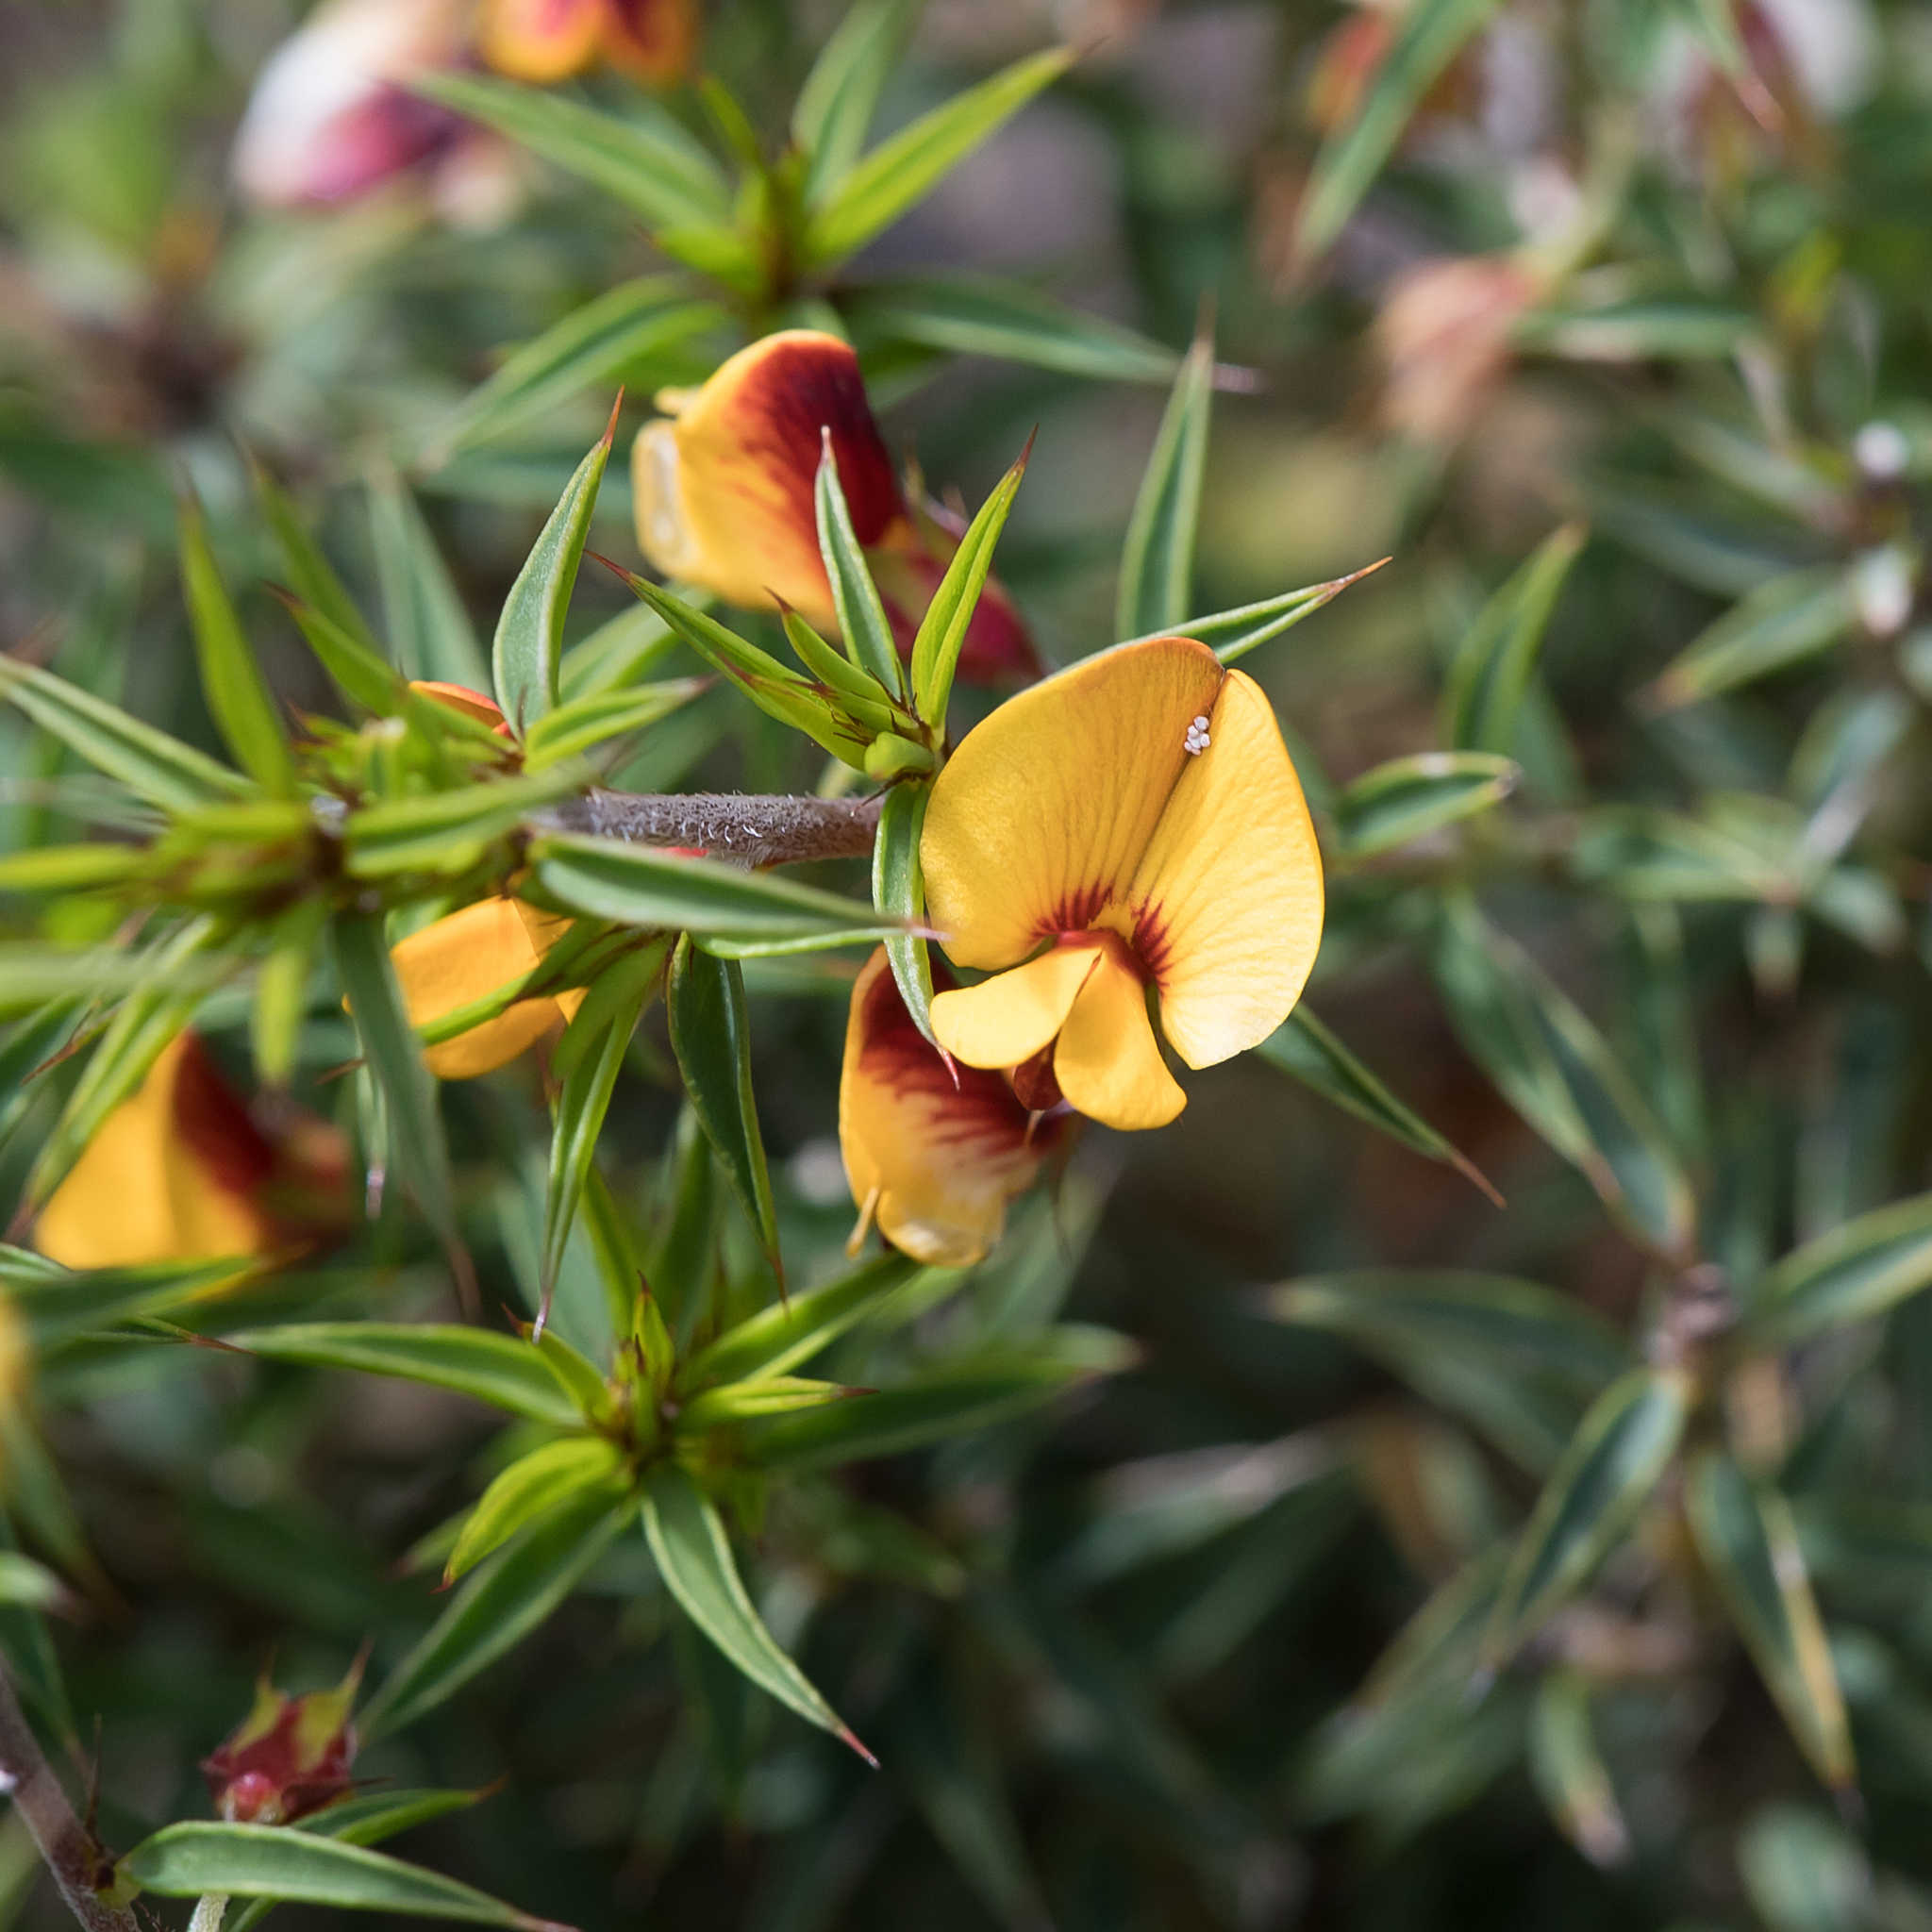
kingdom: Plantae
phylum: Tracheophyta
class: Magnoliopsida
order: Fabales
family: Fabaceae
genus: Pultenaea
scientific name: Pultenaea acerosa
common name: Bristly bush-pea
